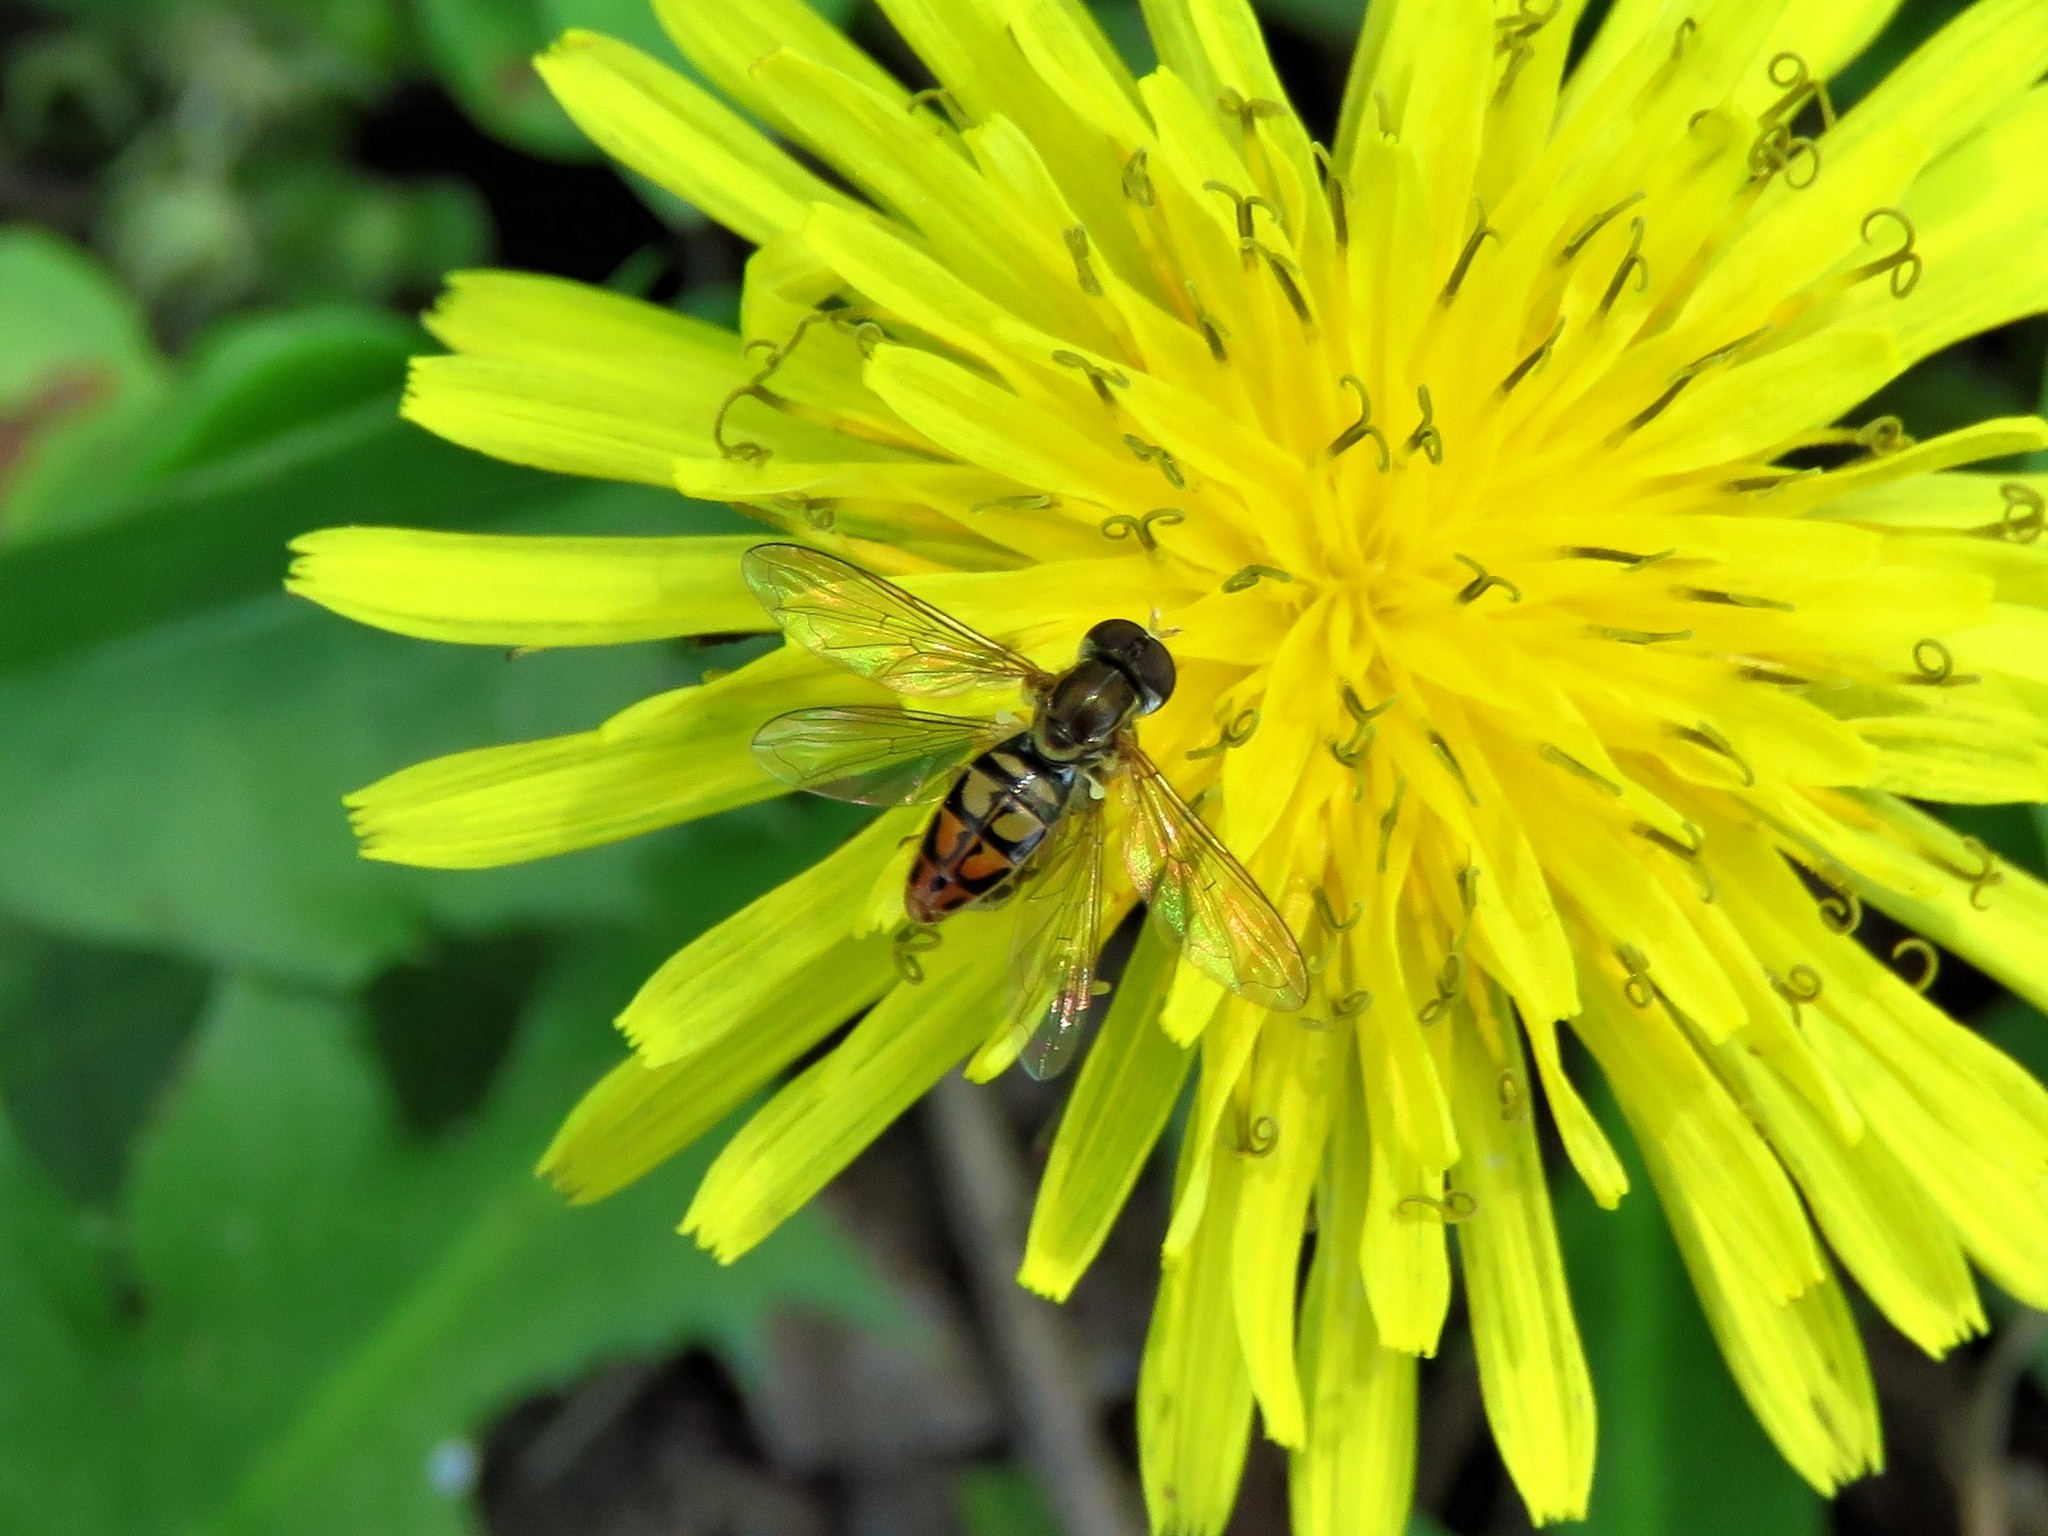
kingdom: Animalia
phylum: Arthropoda
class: Insecta
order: Diptera
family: Syrphidae
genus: Toxomerus
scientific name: Toxomerus marginatus
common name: Syrphid fly
